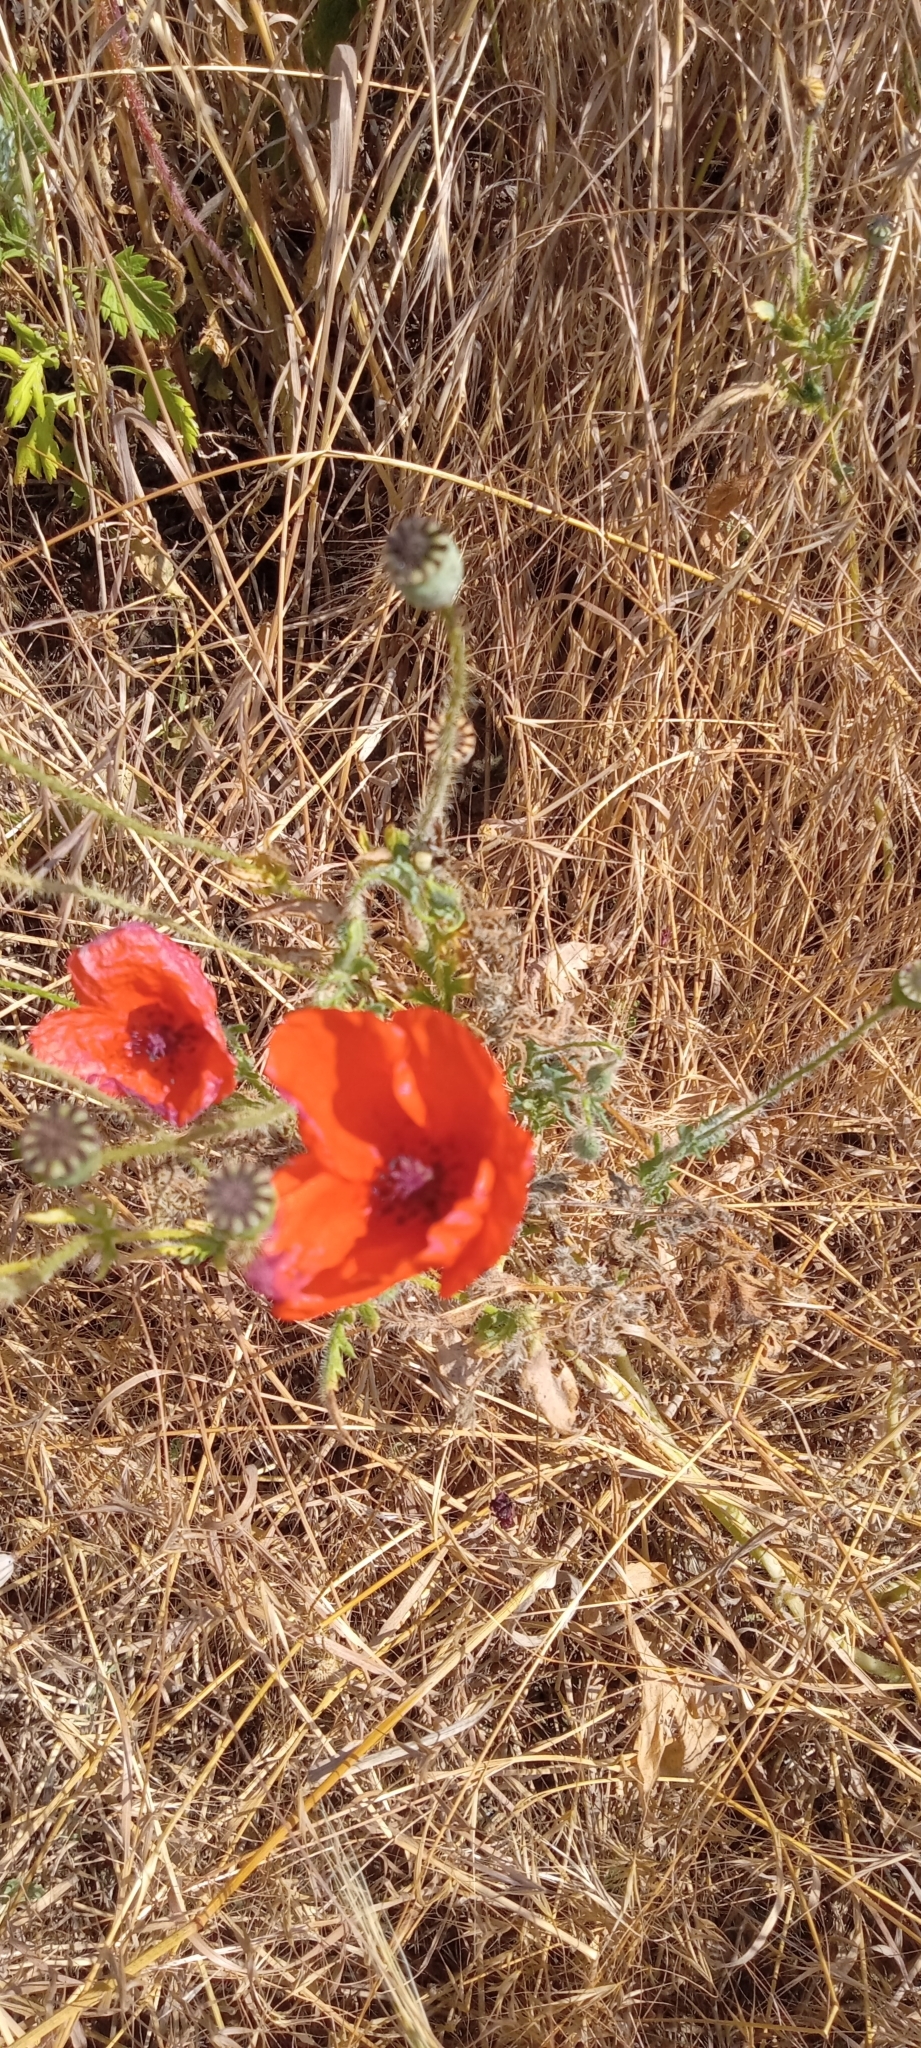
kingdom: Plantae
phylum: Tracheophyta
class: Magnoliopsida
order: Ranunculales
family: Papaveraceae
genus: Papaver
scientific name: Papaver rhoeas
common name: Corn poppy
